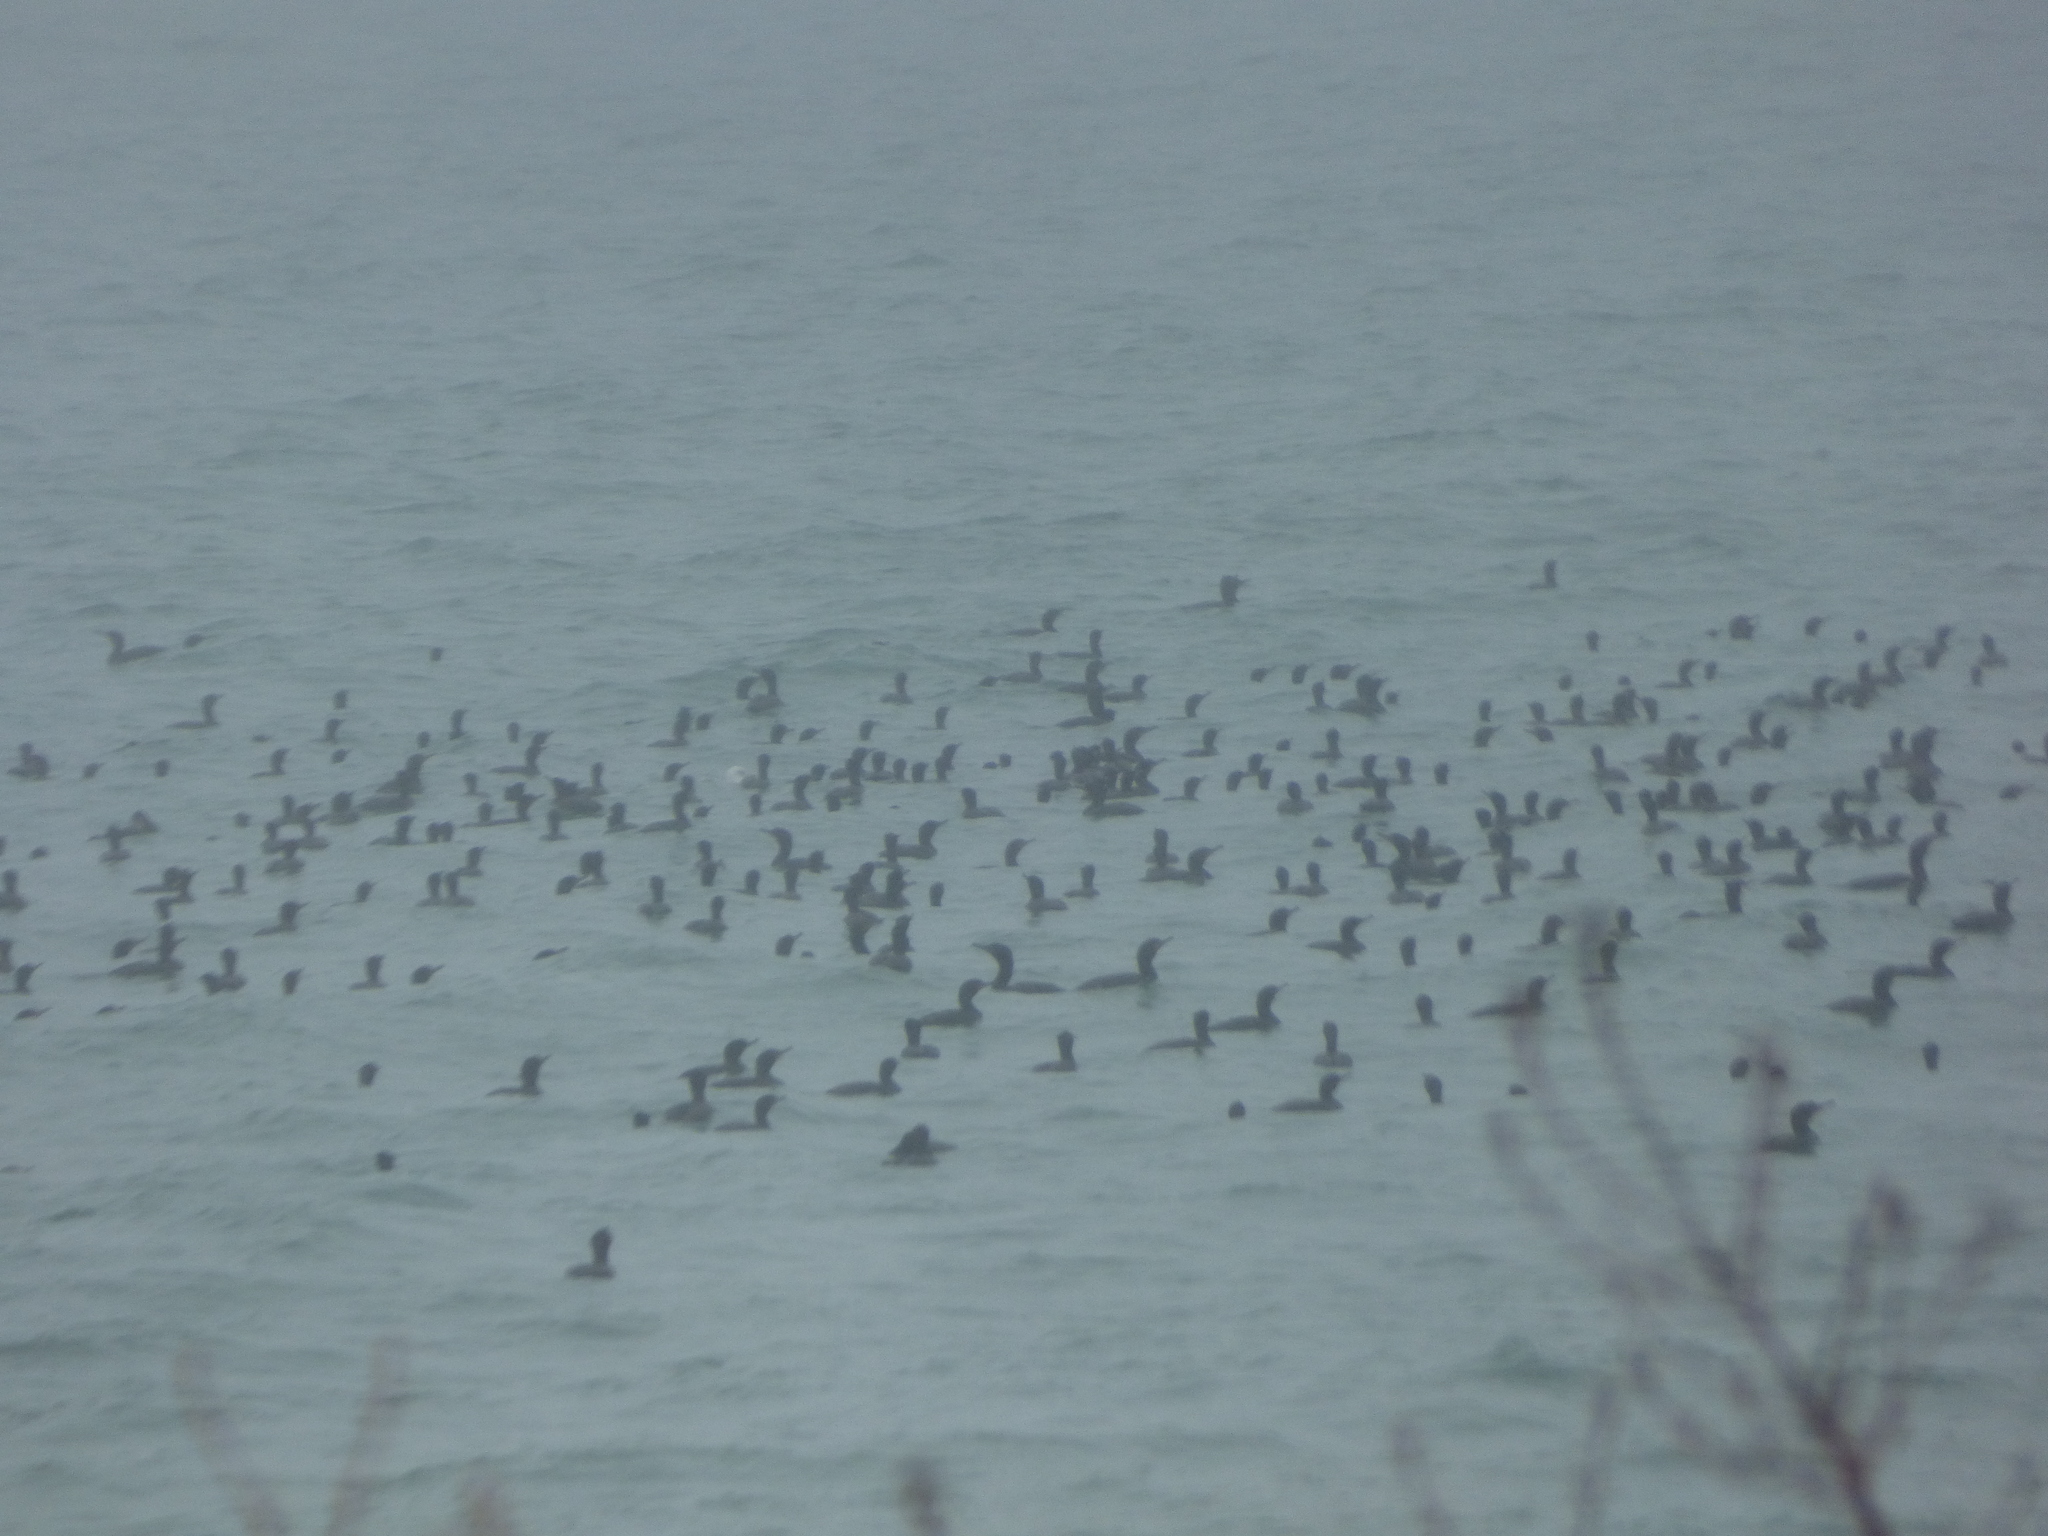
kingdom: Animalia
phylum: Chordata
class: Aves
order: Suliformes
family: Phalacrocoracidae
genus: Phalacrocorax
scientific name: Phalacrocorax auritus
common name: Double-crested cormorant
